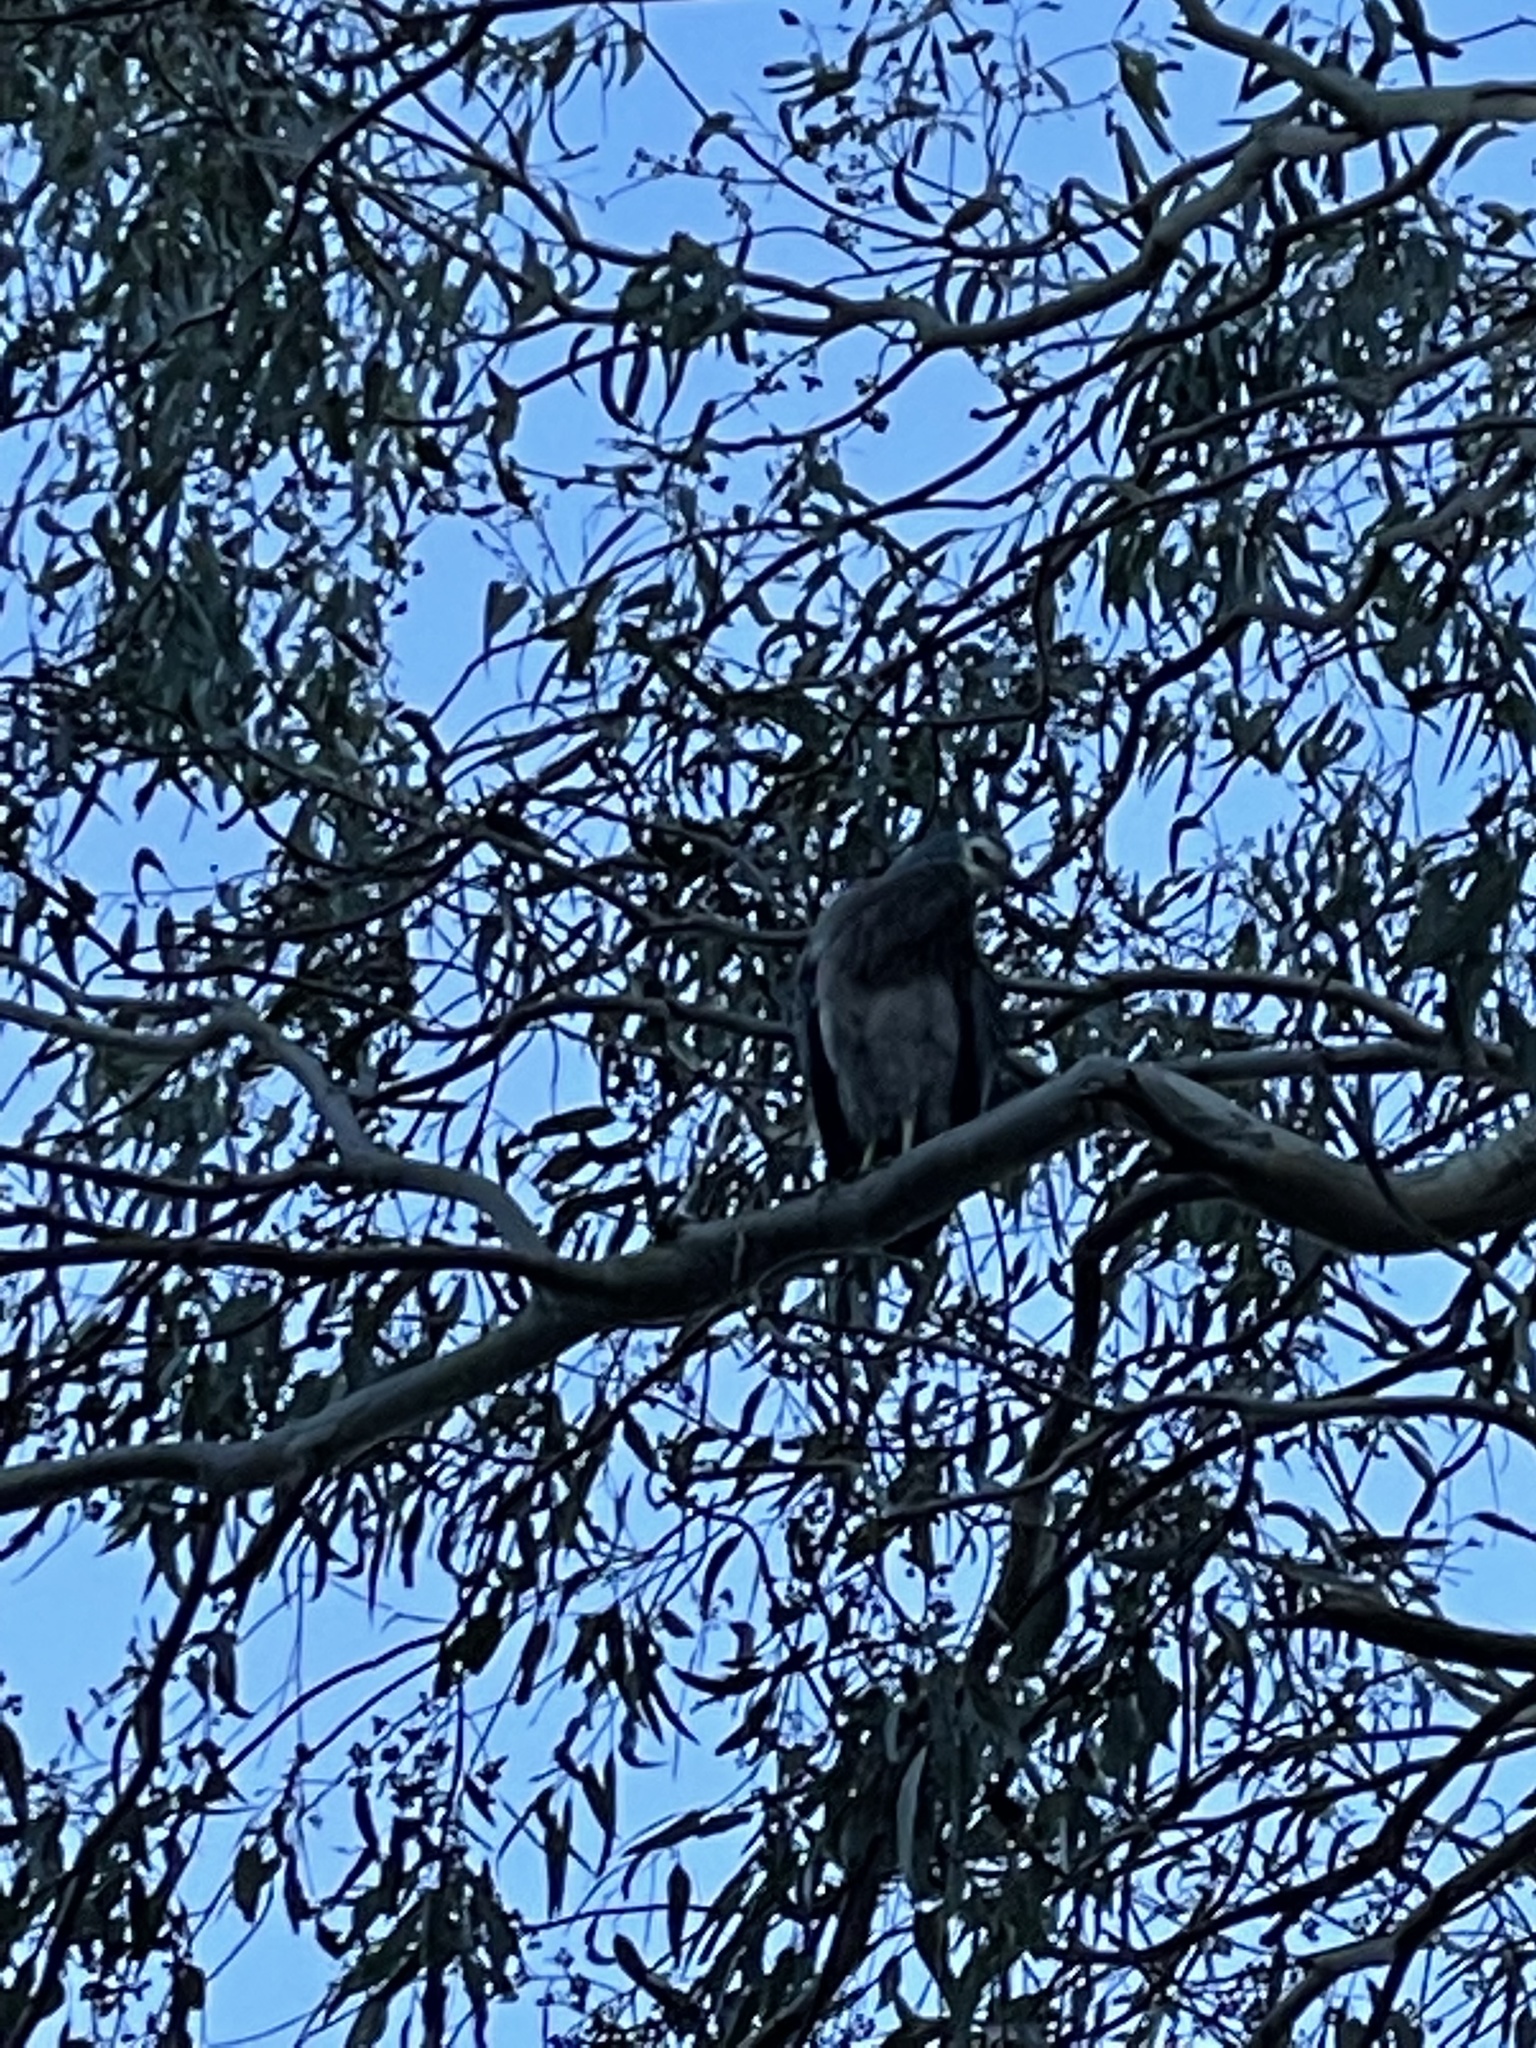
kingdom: Animalia
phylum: Chordata
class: Aves
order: Pelecaniformes
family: Ardeidae
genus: Egretta
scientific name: Egretta novaehollandiae
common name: White-faced heron
